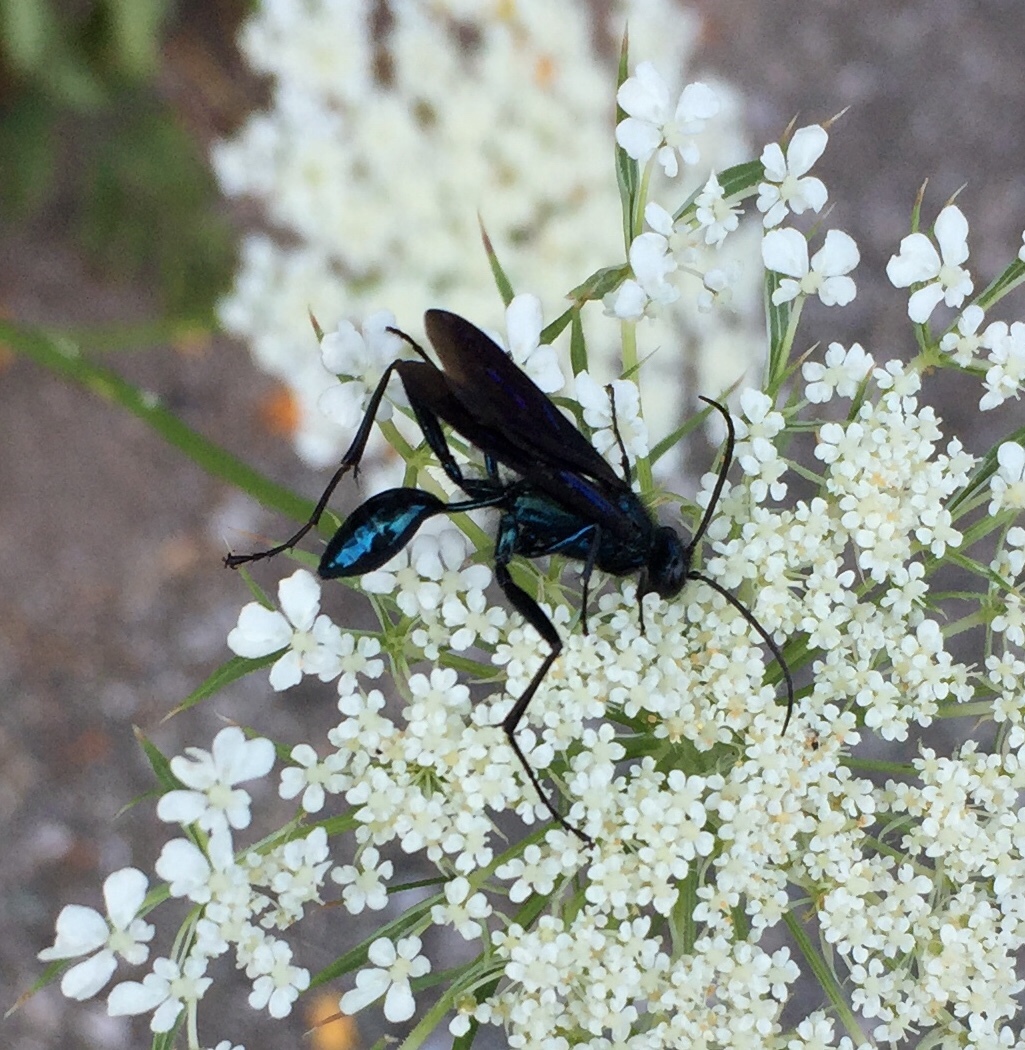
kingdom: Animalia
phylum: Arthropoda
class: Insecta
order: Hymenoptera
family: Sphecidae
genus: Chalybion
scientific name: Chalybion californicum
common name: Mud dauber
